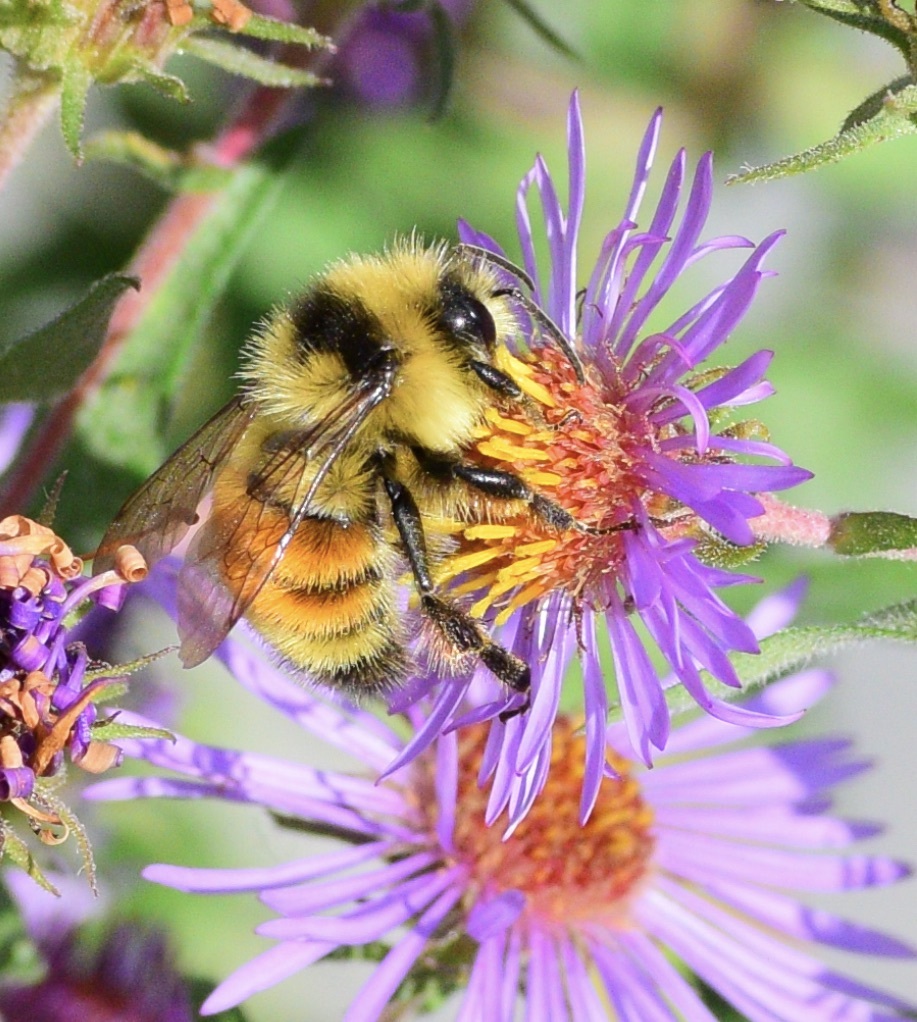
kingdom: Animalia
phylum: Arthropoda
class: Insecta
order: Hymenoptera
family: Apidae
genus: Bombus
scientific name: Bombus ternarius
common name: Tri-colored bumble bee
